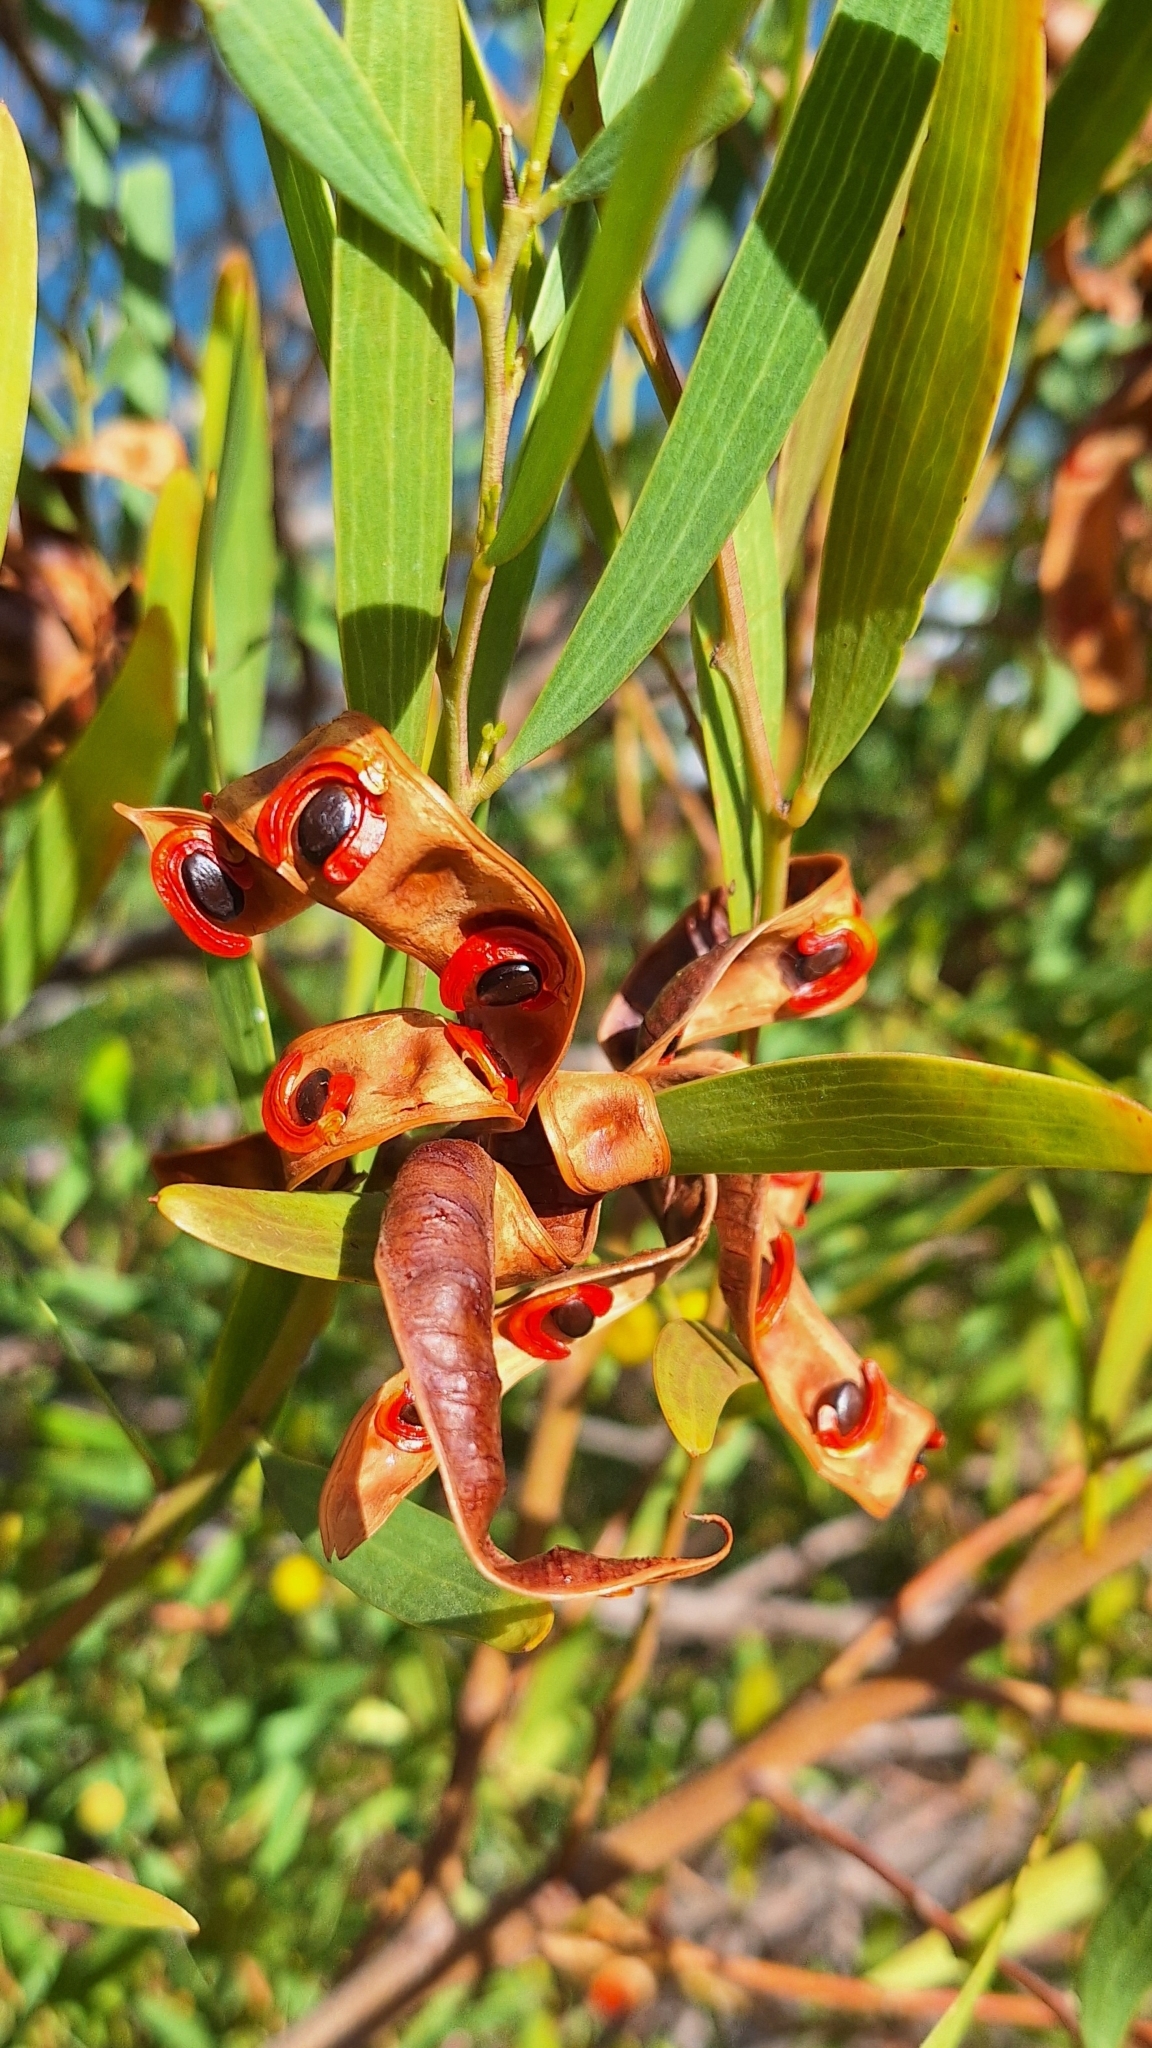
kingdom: Plantae
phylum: Tracheophyta
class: Magnoliopsida
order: Fabales
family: Fabaceae
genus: Acacia
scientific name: Acacia cyclops
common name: Coastal wattle
